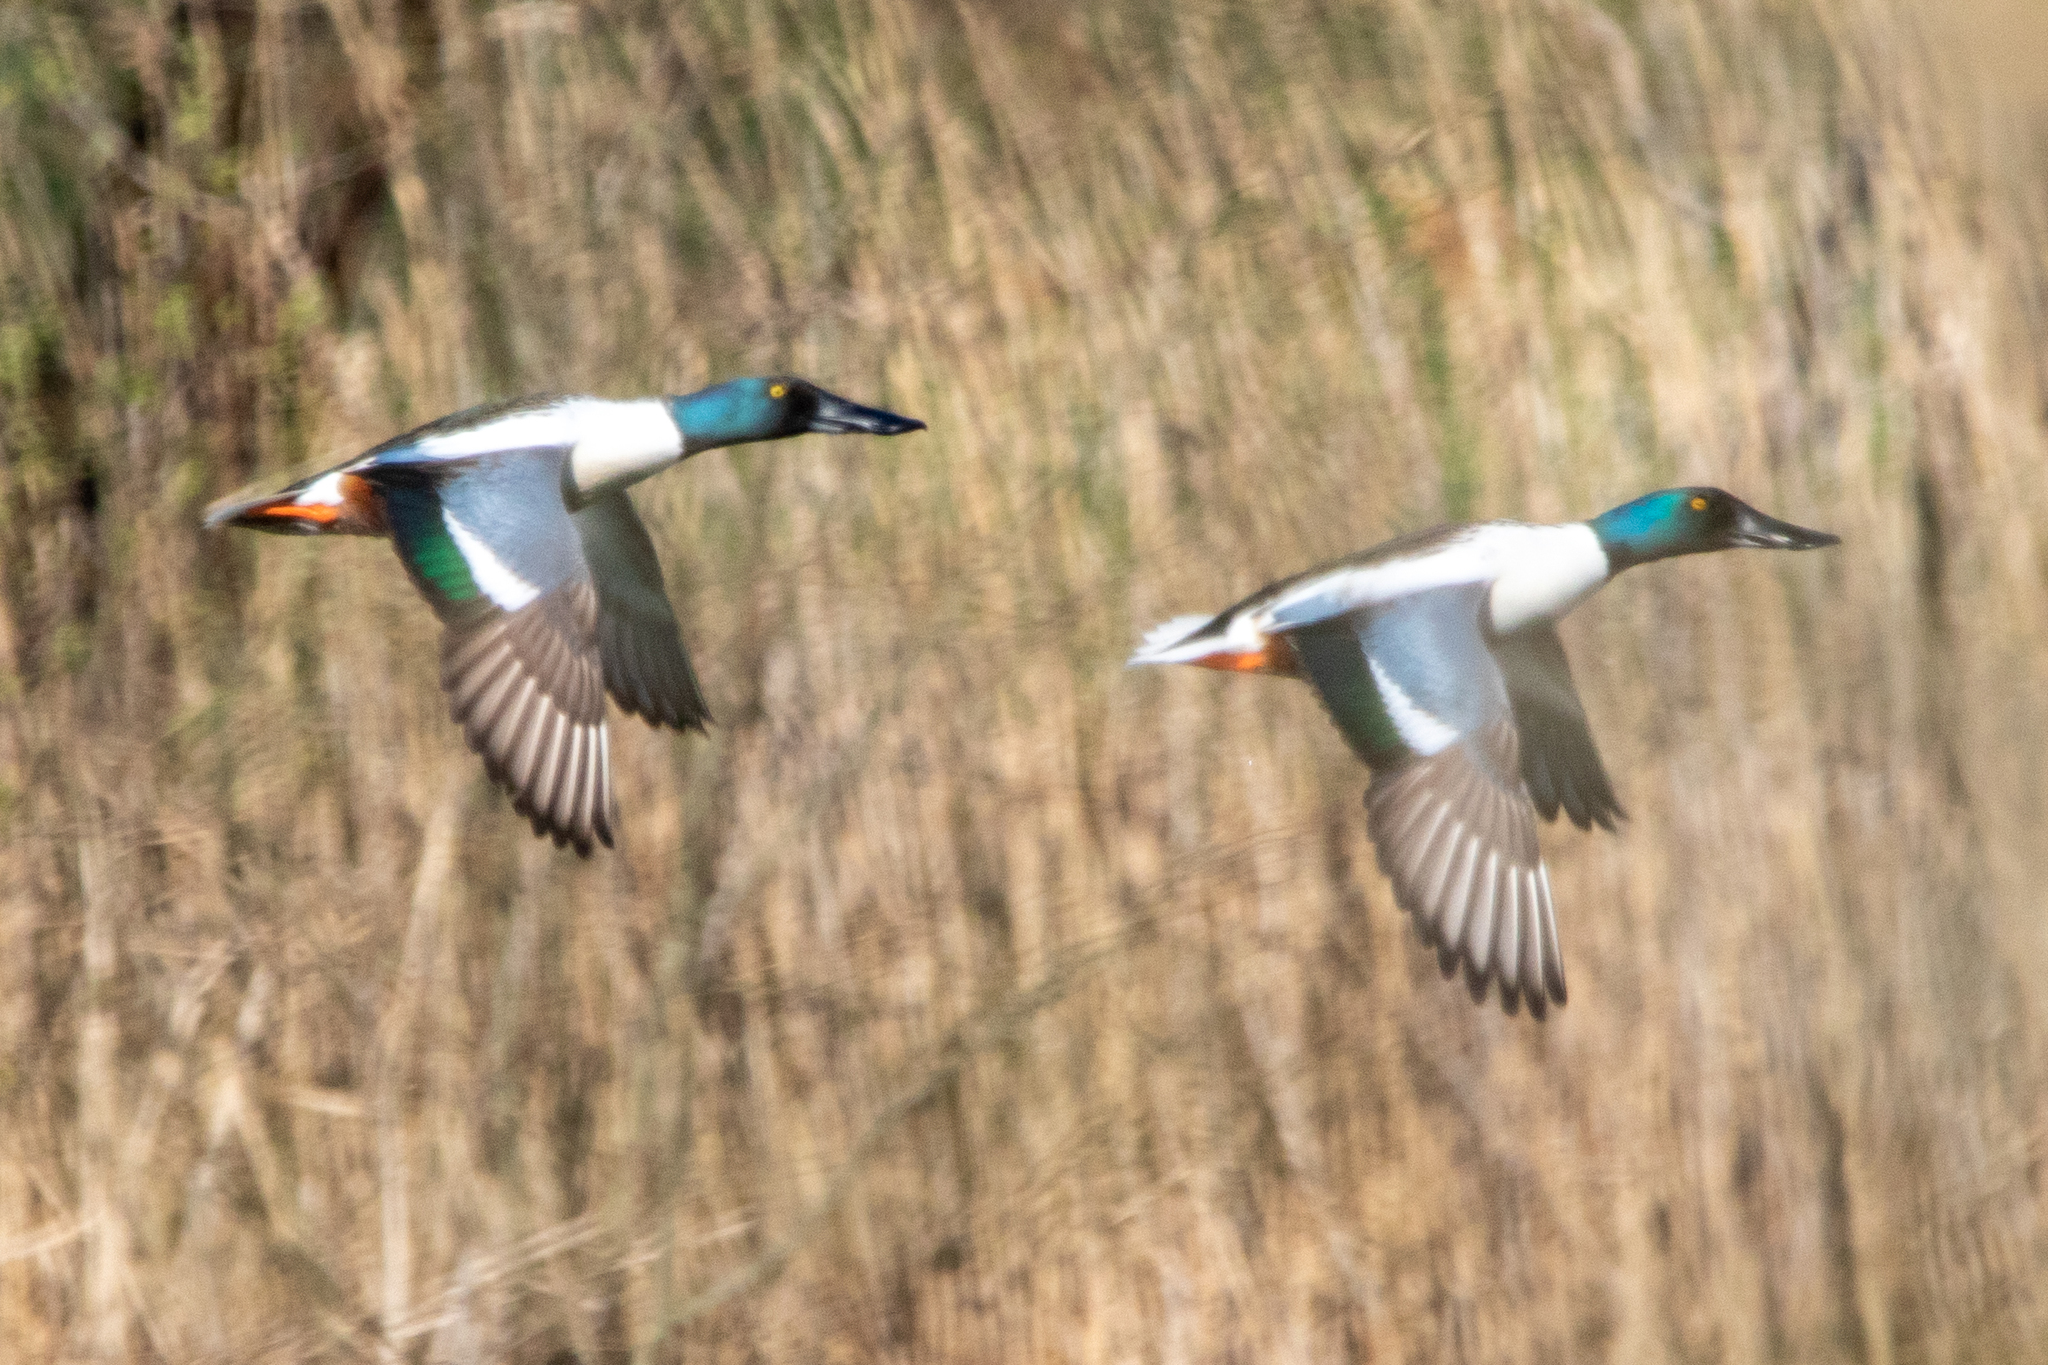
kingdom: Animalia
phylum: Chordata
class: Aves
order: Anseriformes
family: Anatidae
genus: Spatula
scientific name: Spatula clypeata
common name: Northern shoveler
